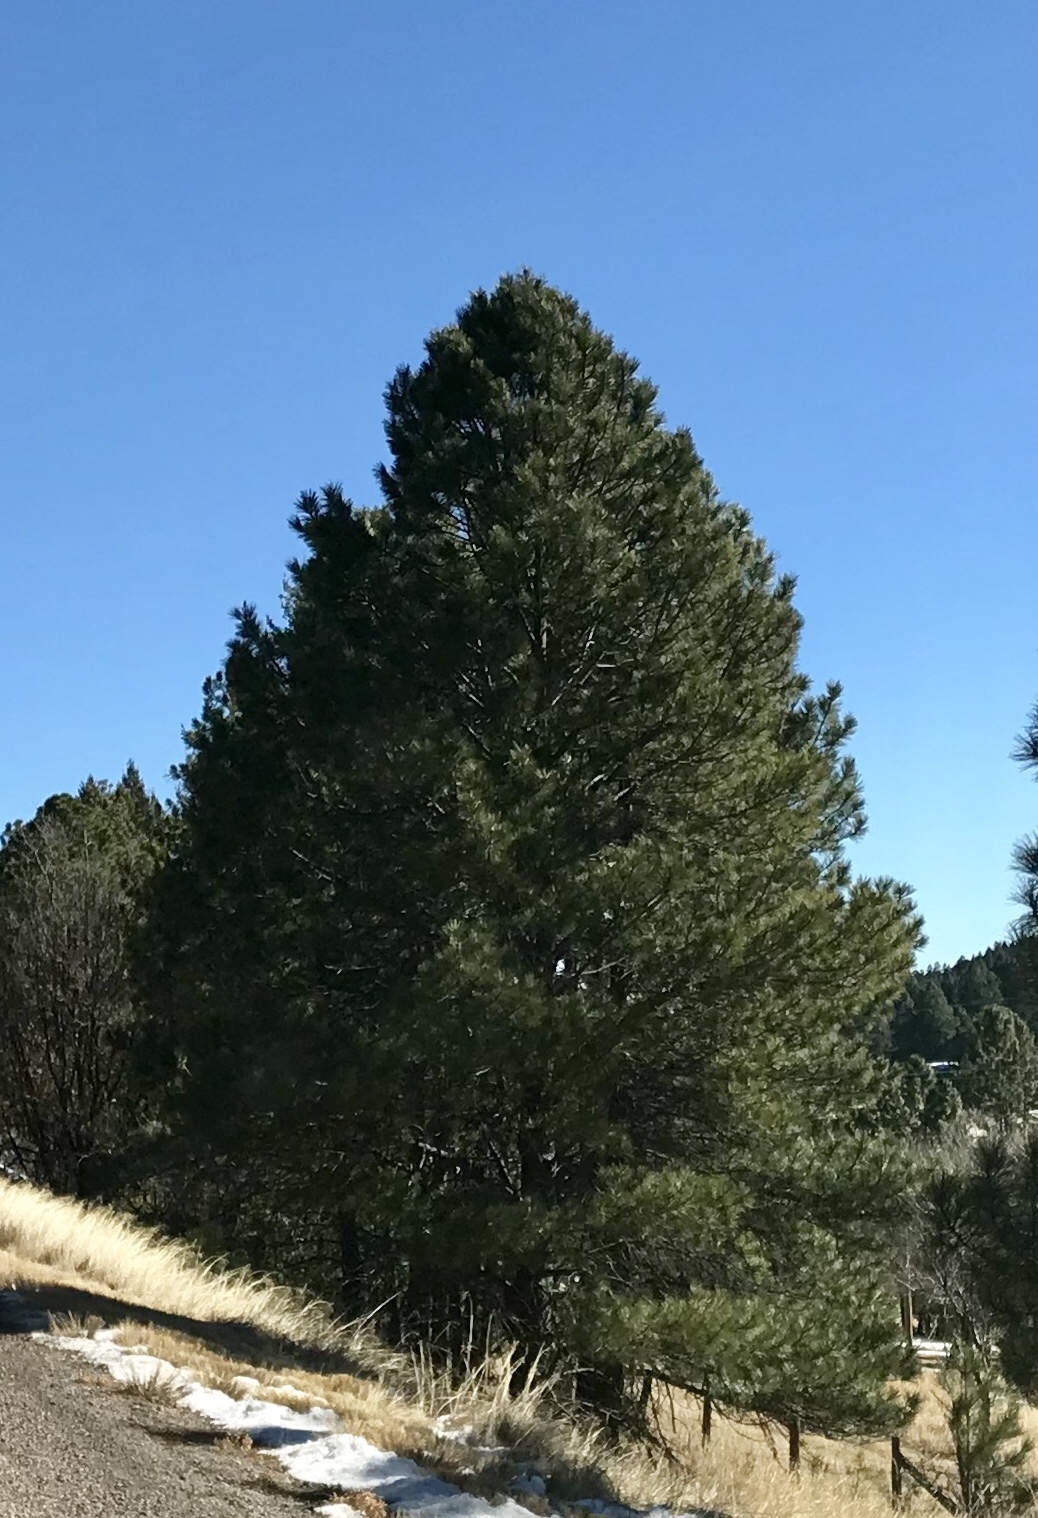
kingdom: Plantae
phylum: Tracheophyta
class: Pinopsida
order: Pinales
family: Pinaceae
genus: Pinus
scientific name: Pinus ponderosa
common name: Western yellow-pine
